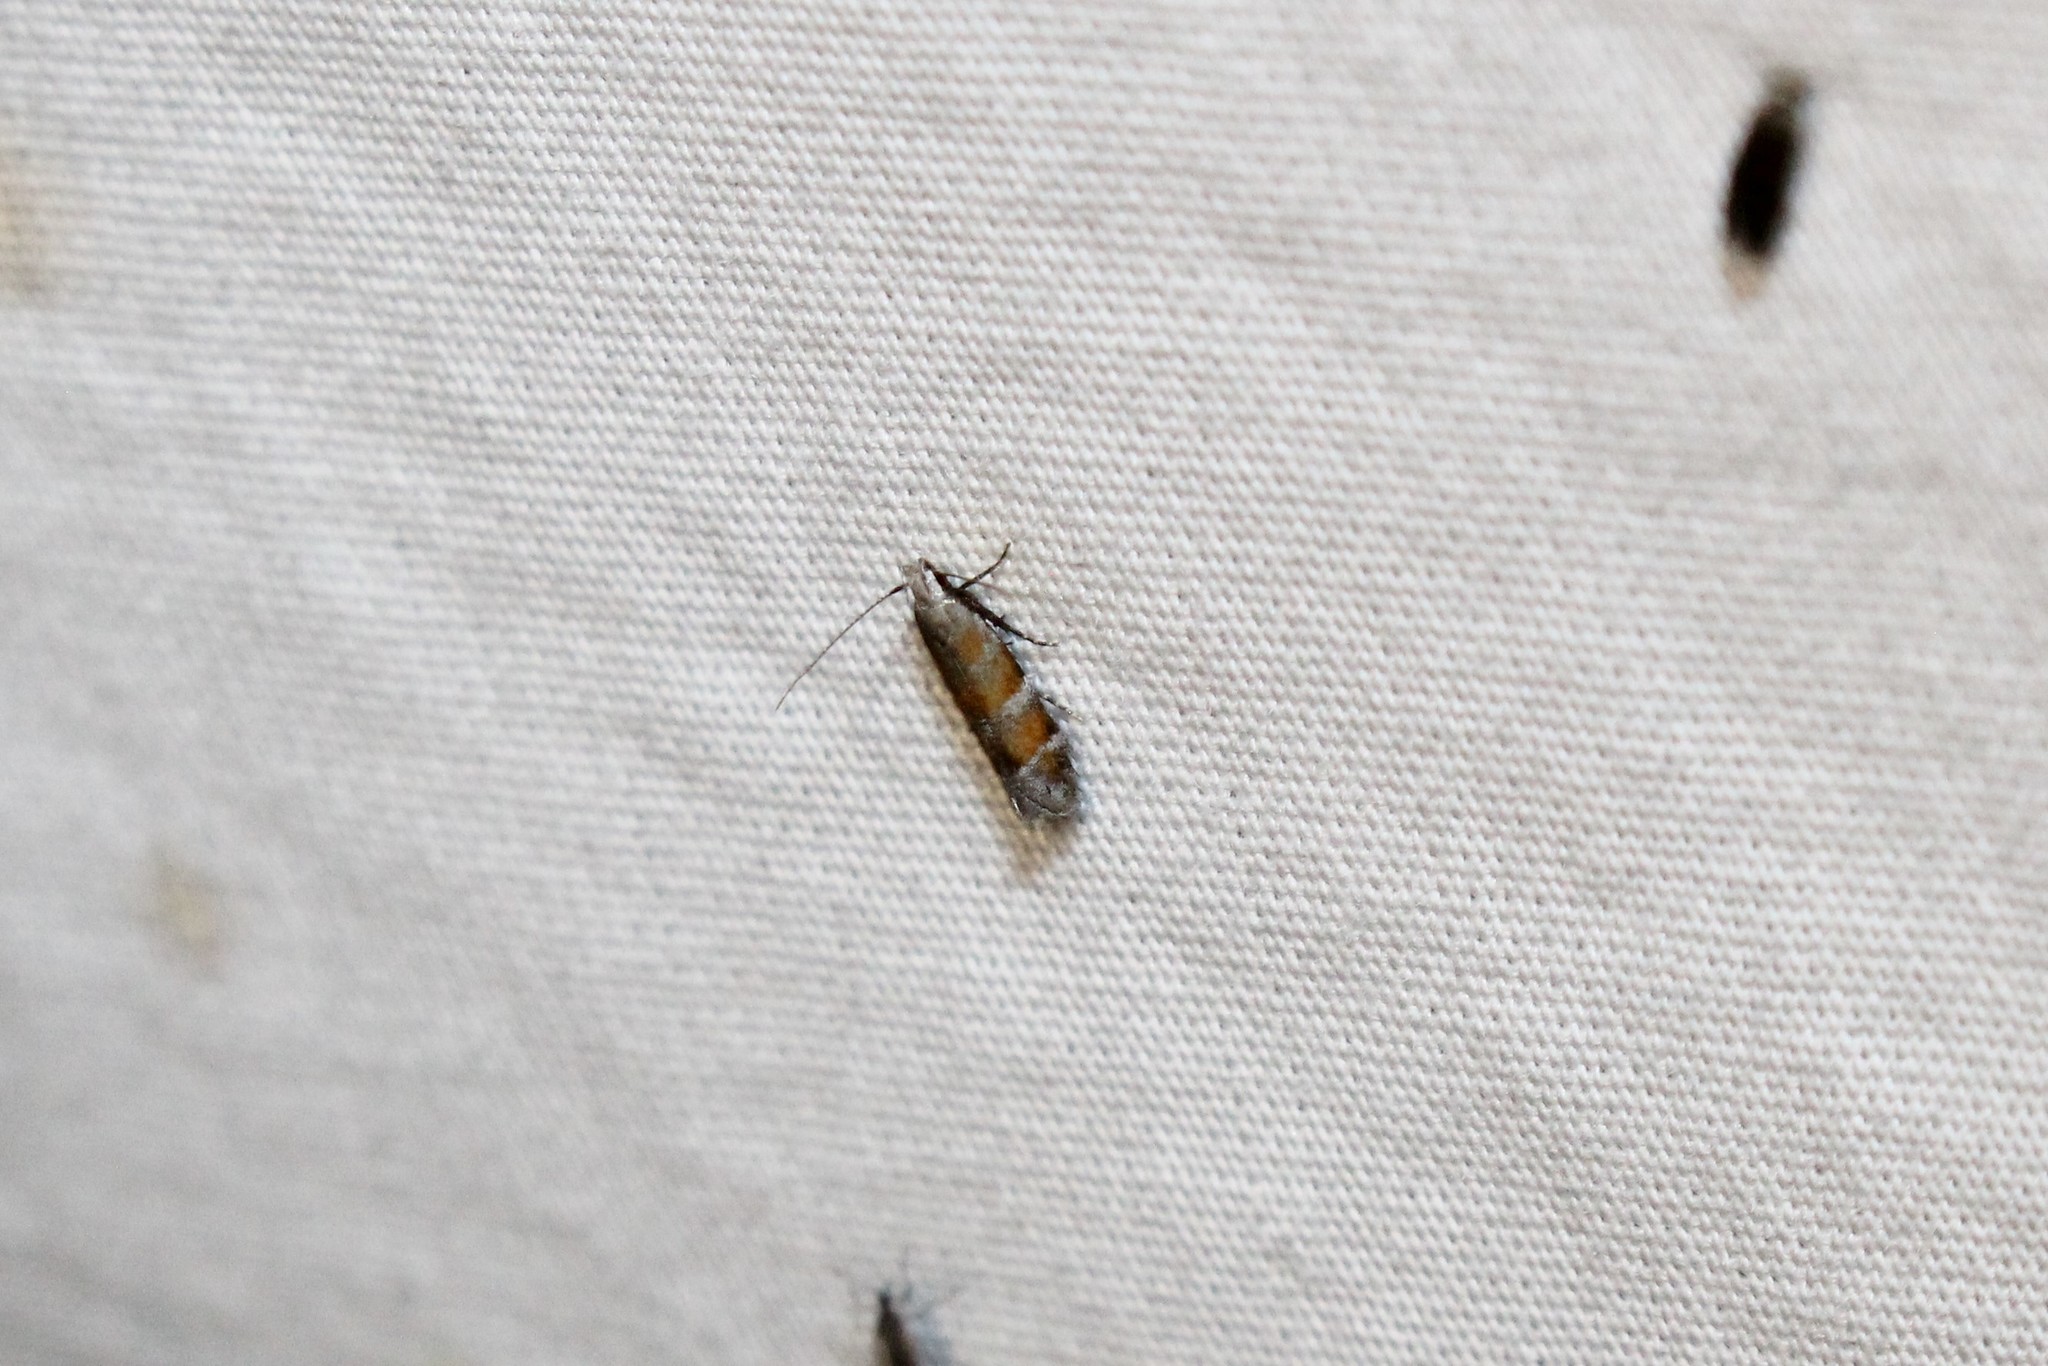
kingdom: Animalia
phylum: Arthropoda
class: Insecta
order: Lepidoptera
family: Gelechiidae
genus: Battaristis
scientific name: Battaristis vittella
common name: Orange stripe-backed moth
